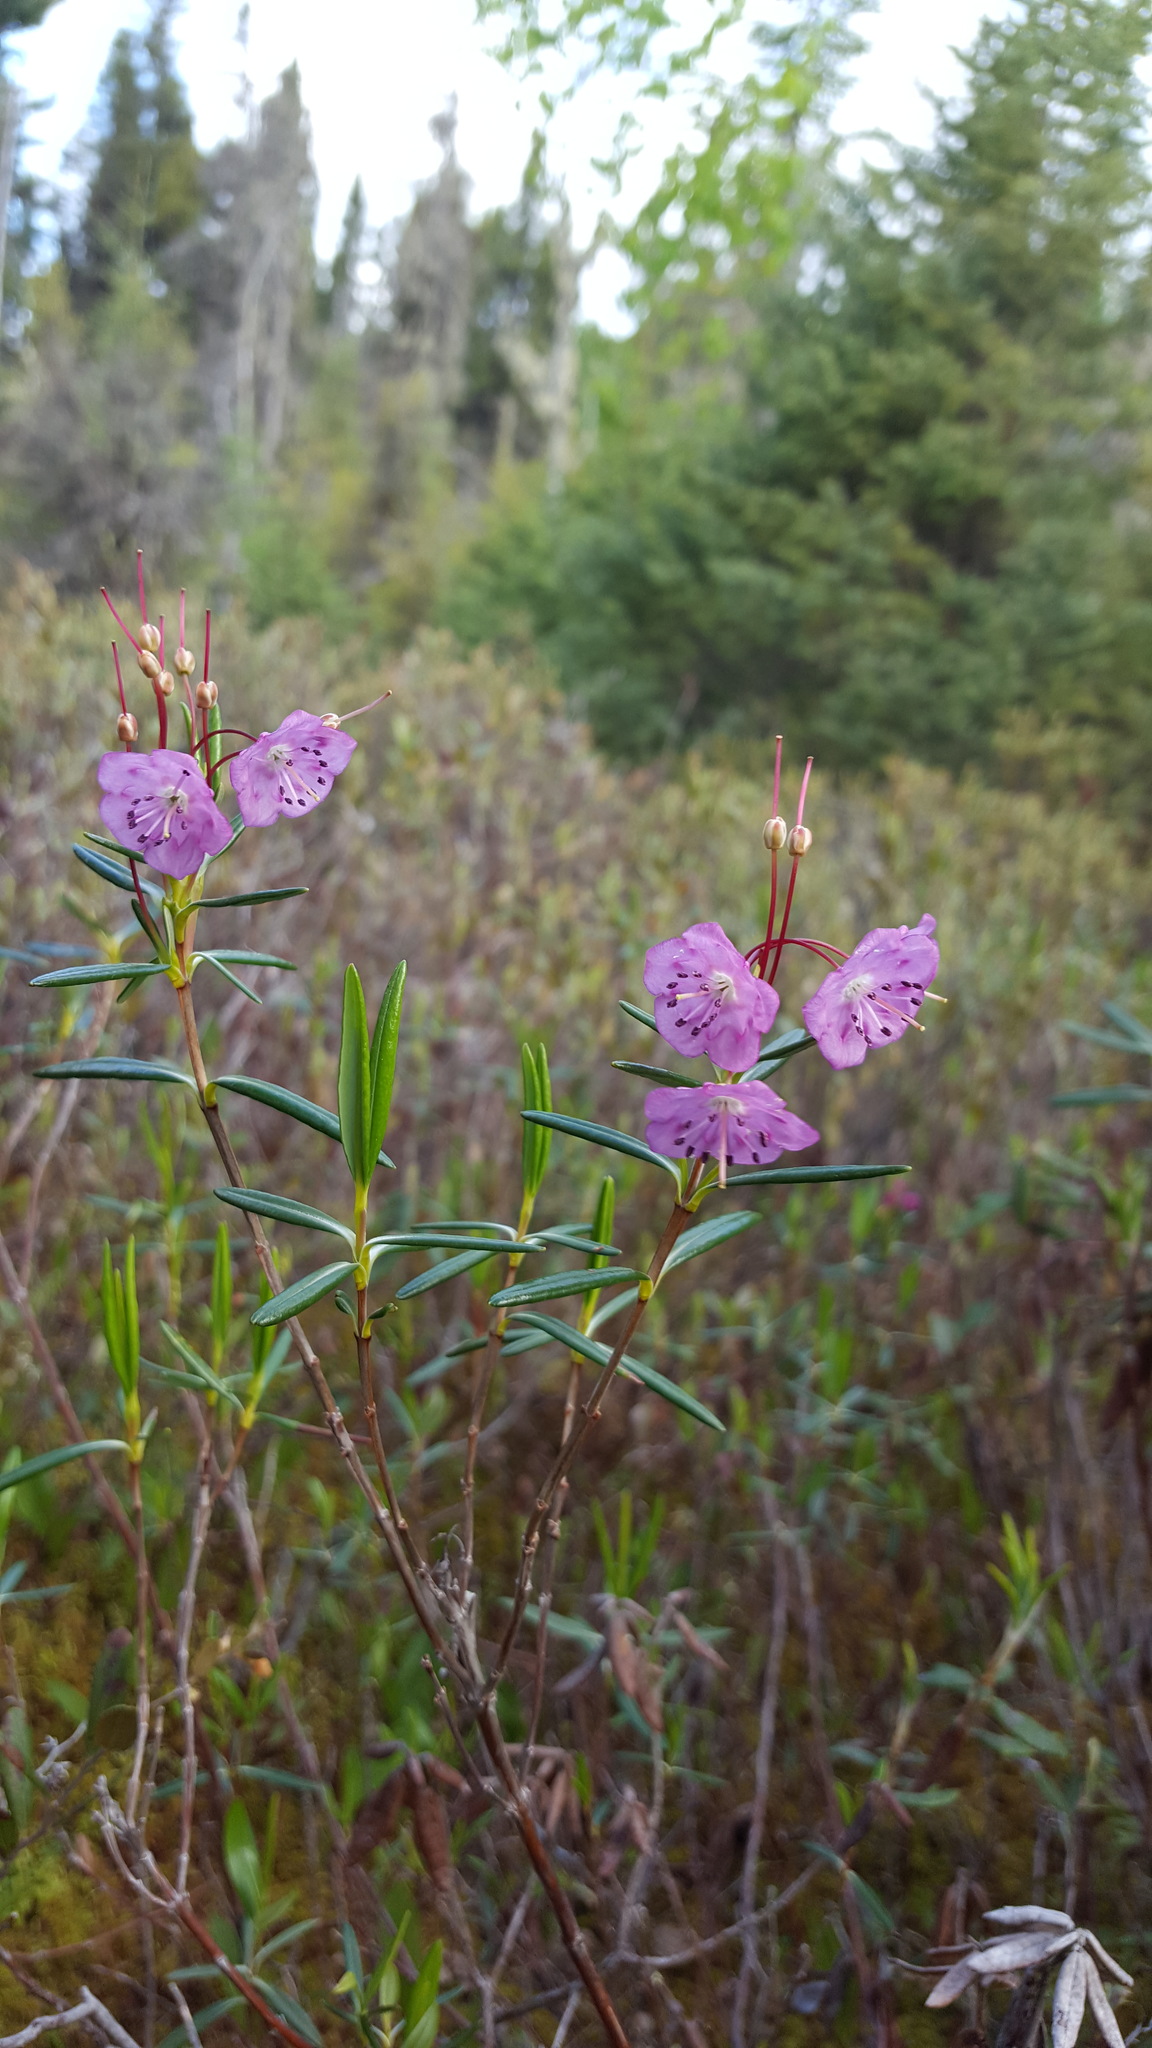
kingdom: Plantae
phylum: Tracheophyta
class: Magnoliopsida
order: Ericales
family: Ericaceae
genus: Kalmia
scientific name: Kalmia polifolia
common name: Bog-laurel
